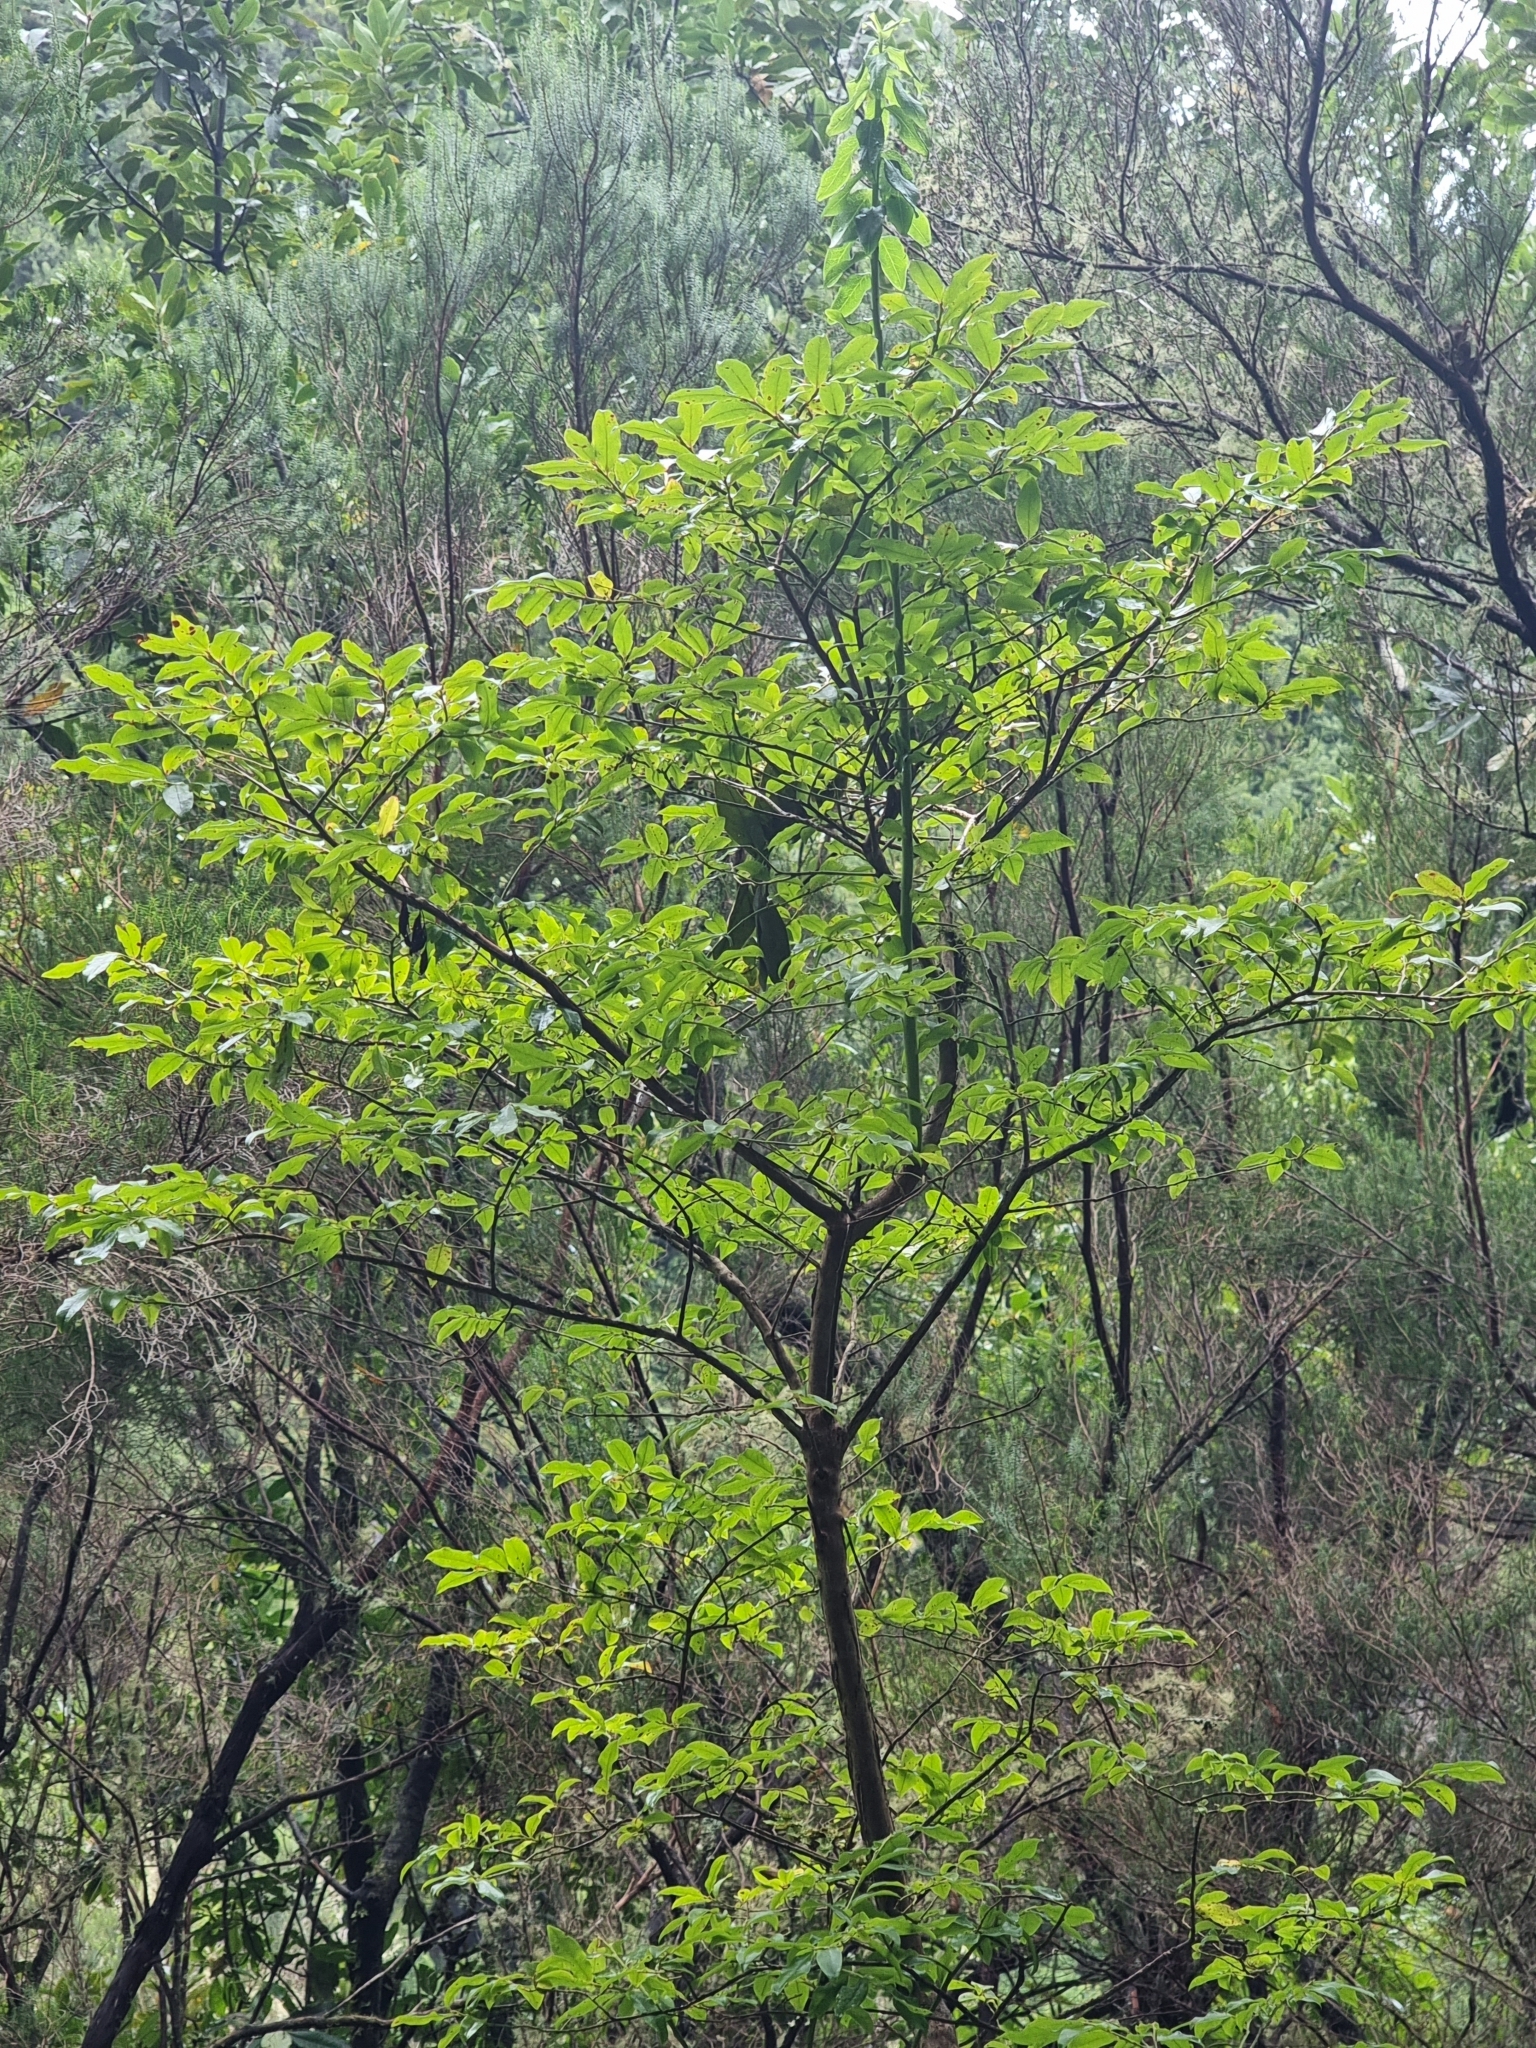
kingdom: Plantae
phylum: Tracheophyta
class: Magnoliopsida
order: Ericales
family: Ericaceae
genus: Vaccinium
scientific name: Vaccinium padifolium
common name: Madeiran blueberry
